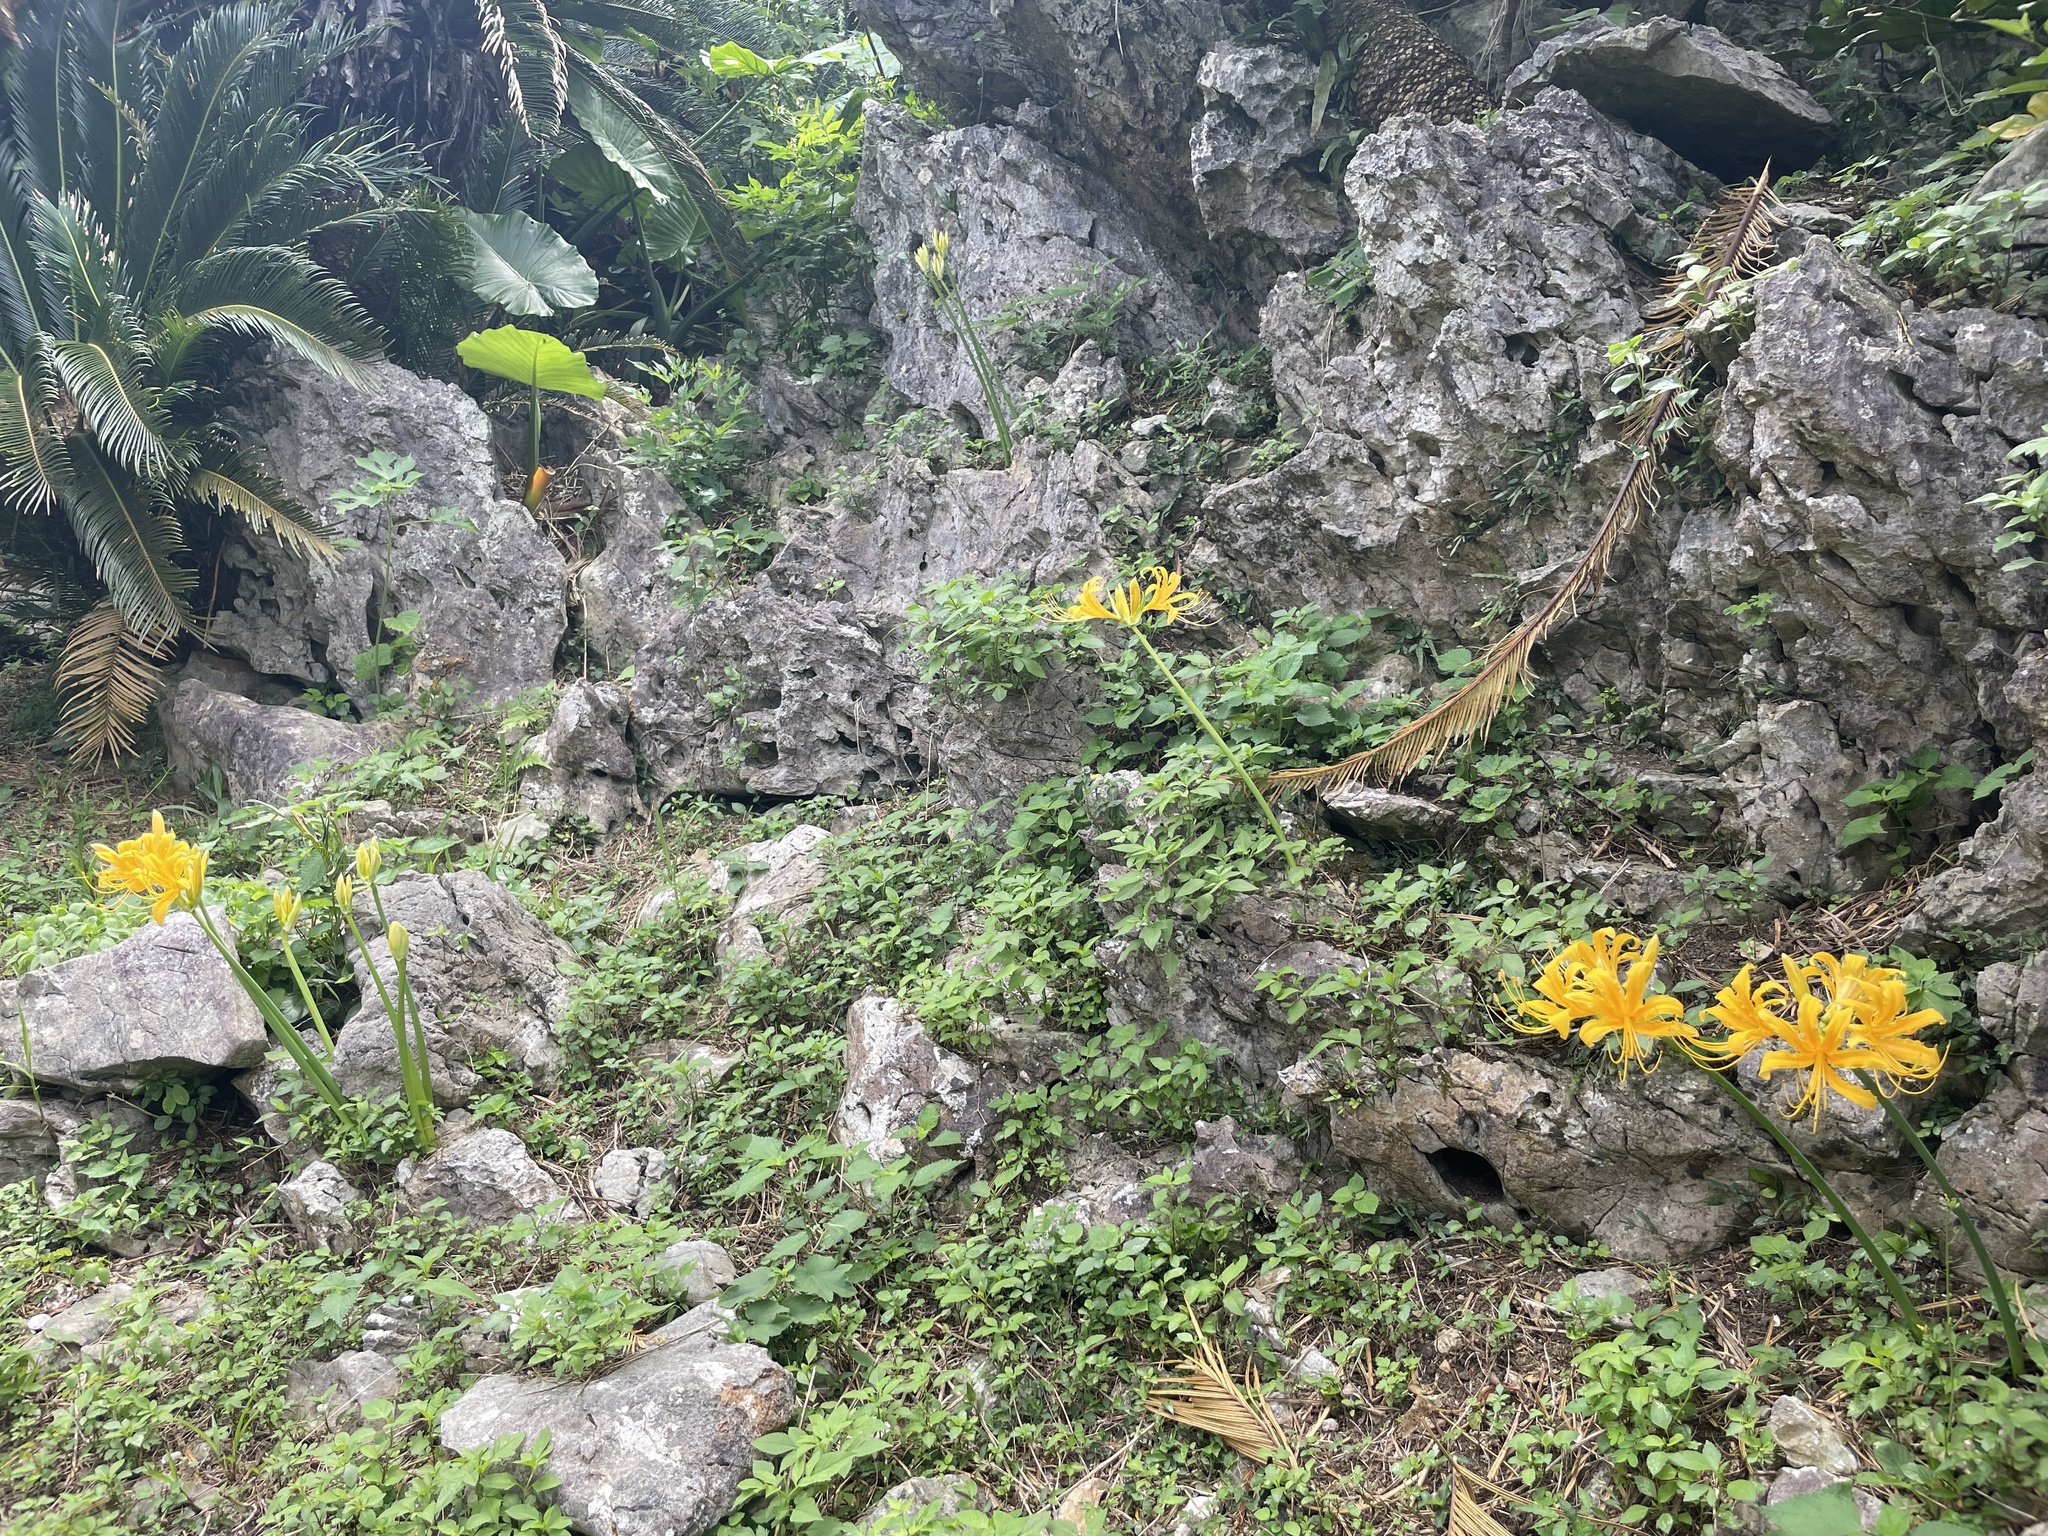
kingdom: Plantae
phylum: Tracheophyta
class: Liliopsida
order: Asparagales
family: Amaryllidaceae
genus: Lycoris
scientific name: Lycoris traubii
